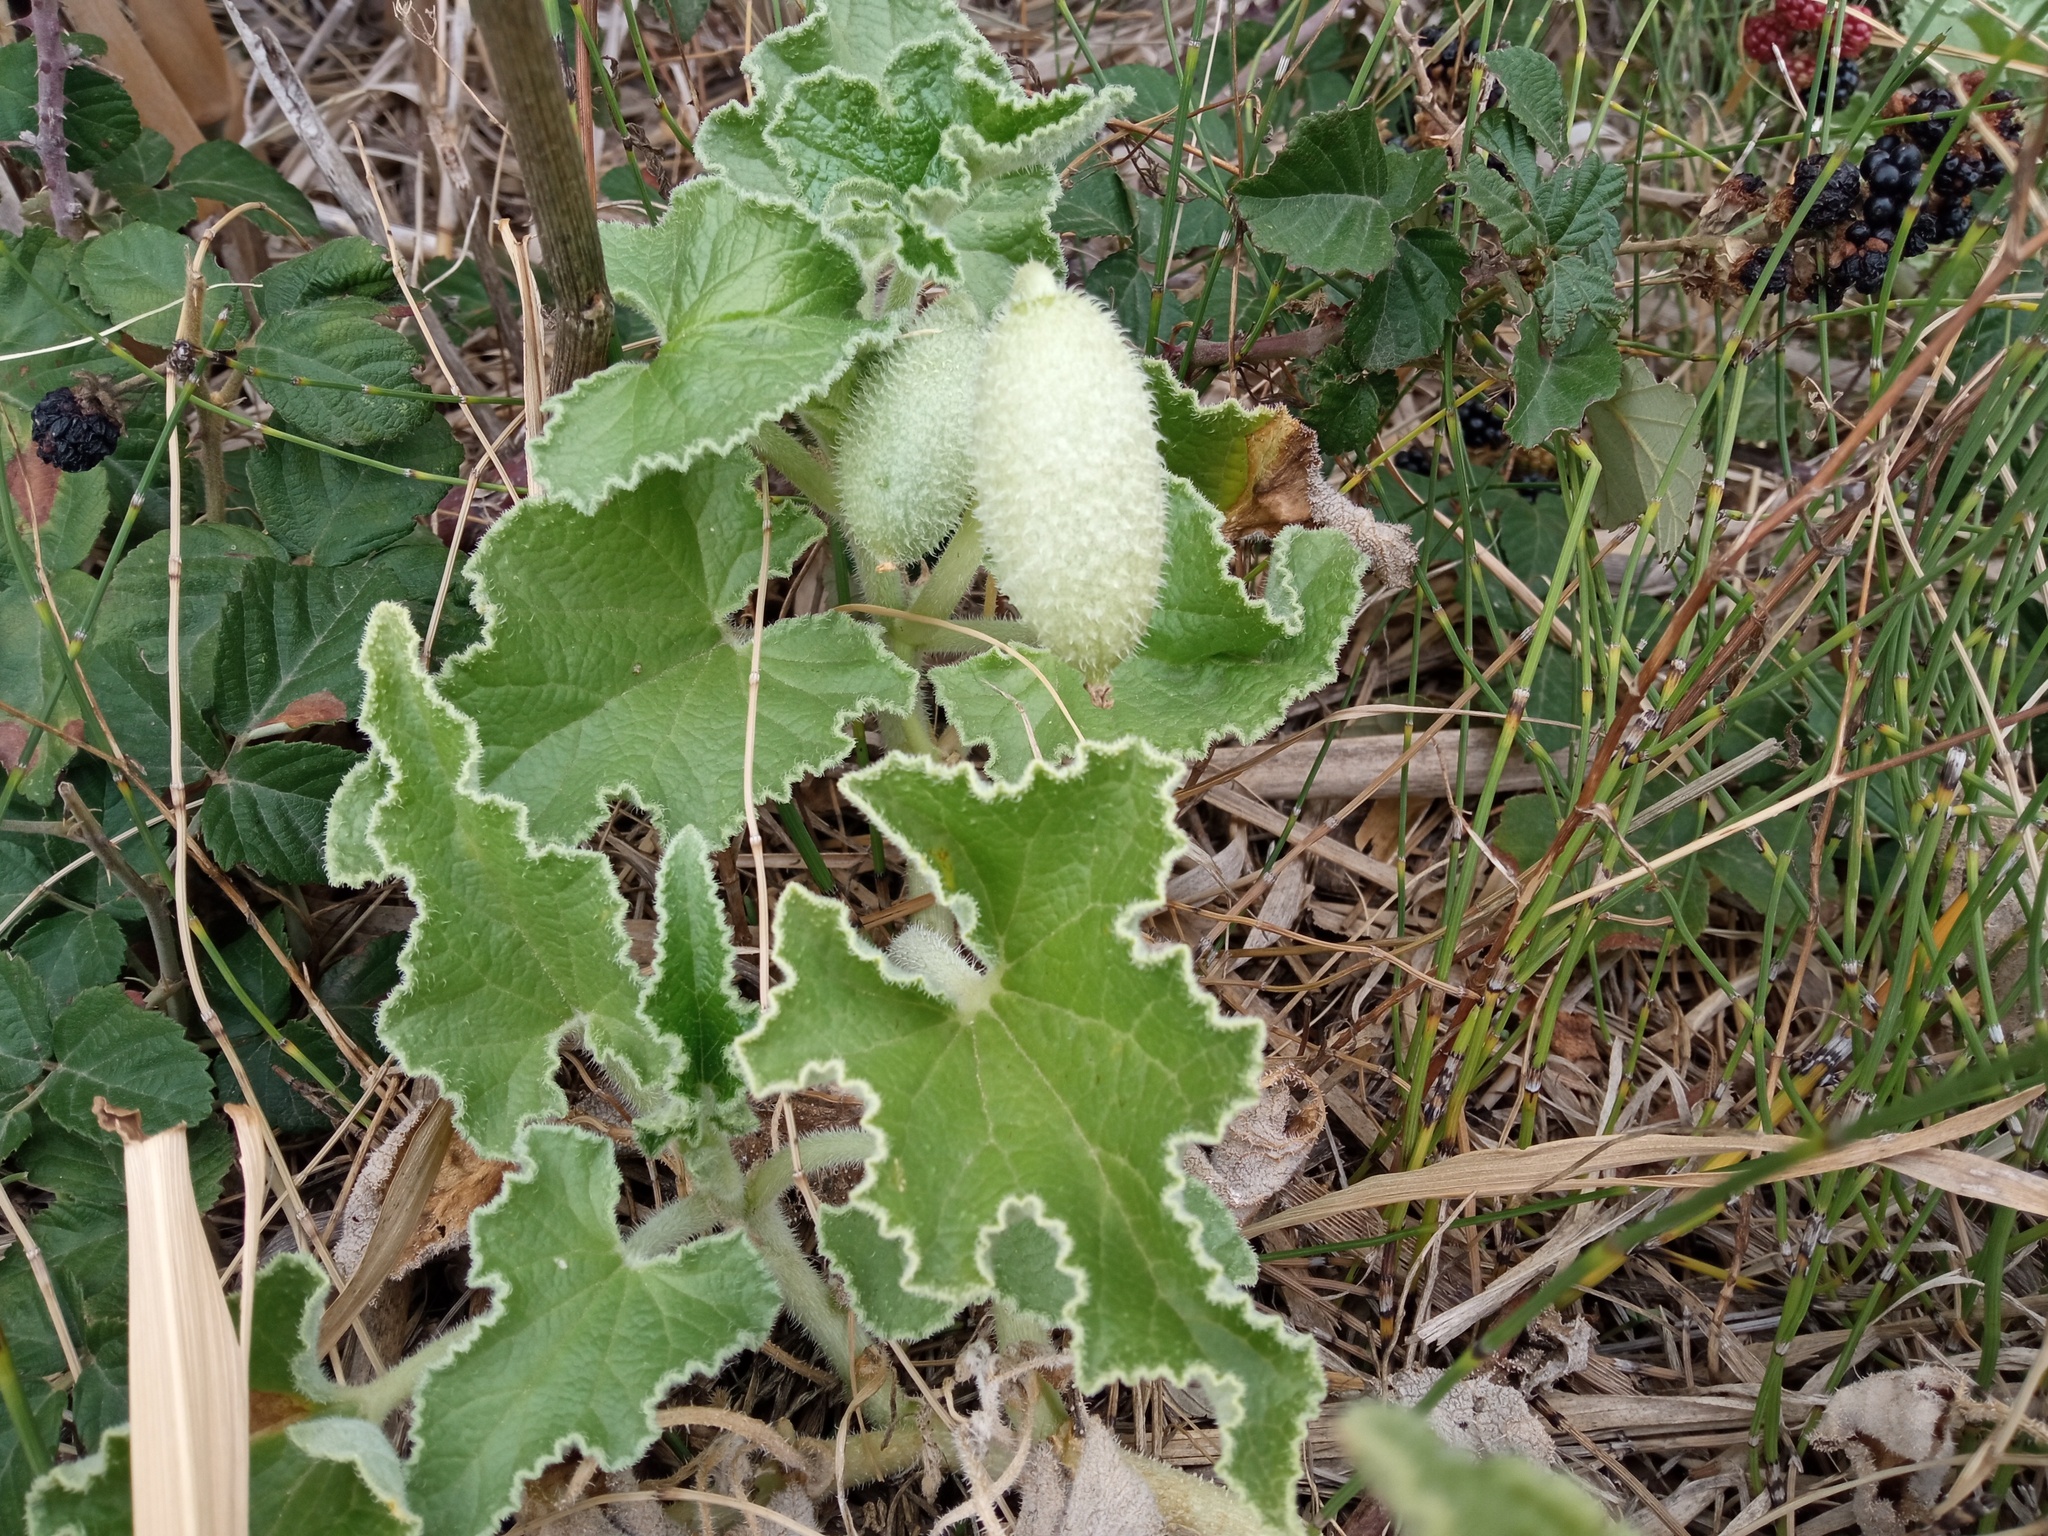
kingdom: Plantae
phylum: Tracheophyta
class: Magnoliopsida
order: Cucurbitales
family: Cucurbitaceae
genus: Ecballium
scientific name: Ecballium elaterium
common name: Squirting cucumber
